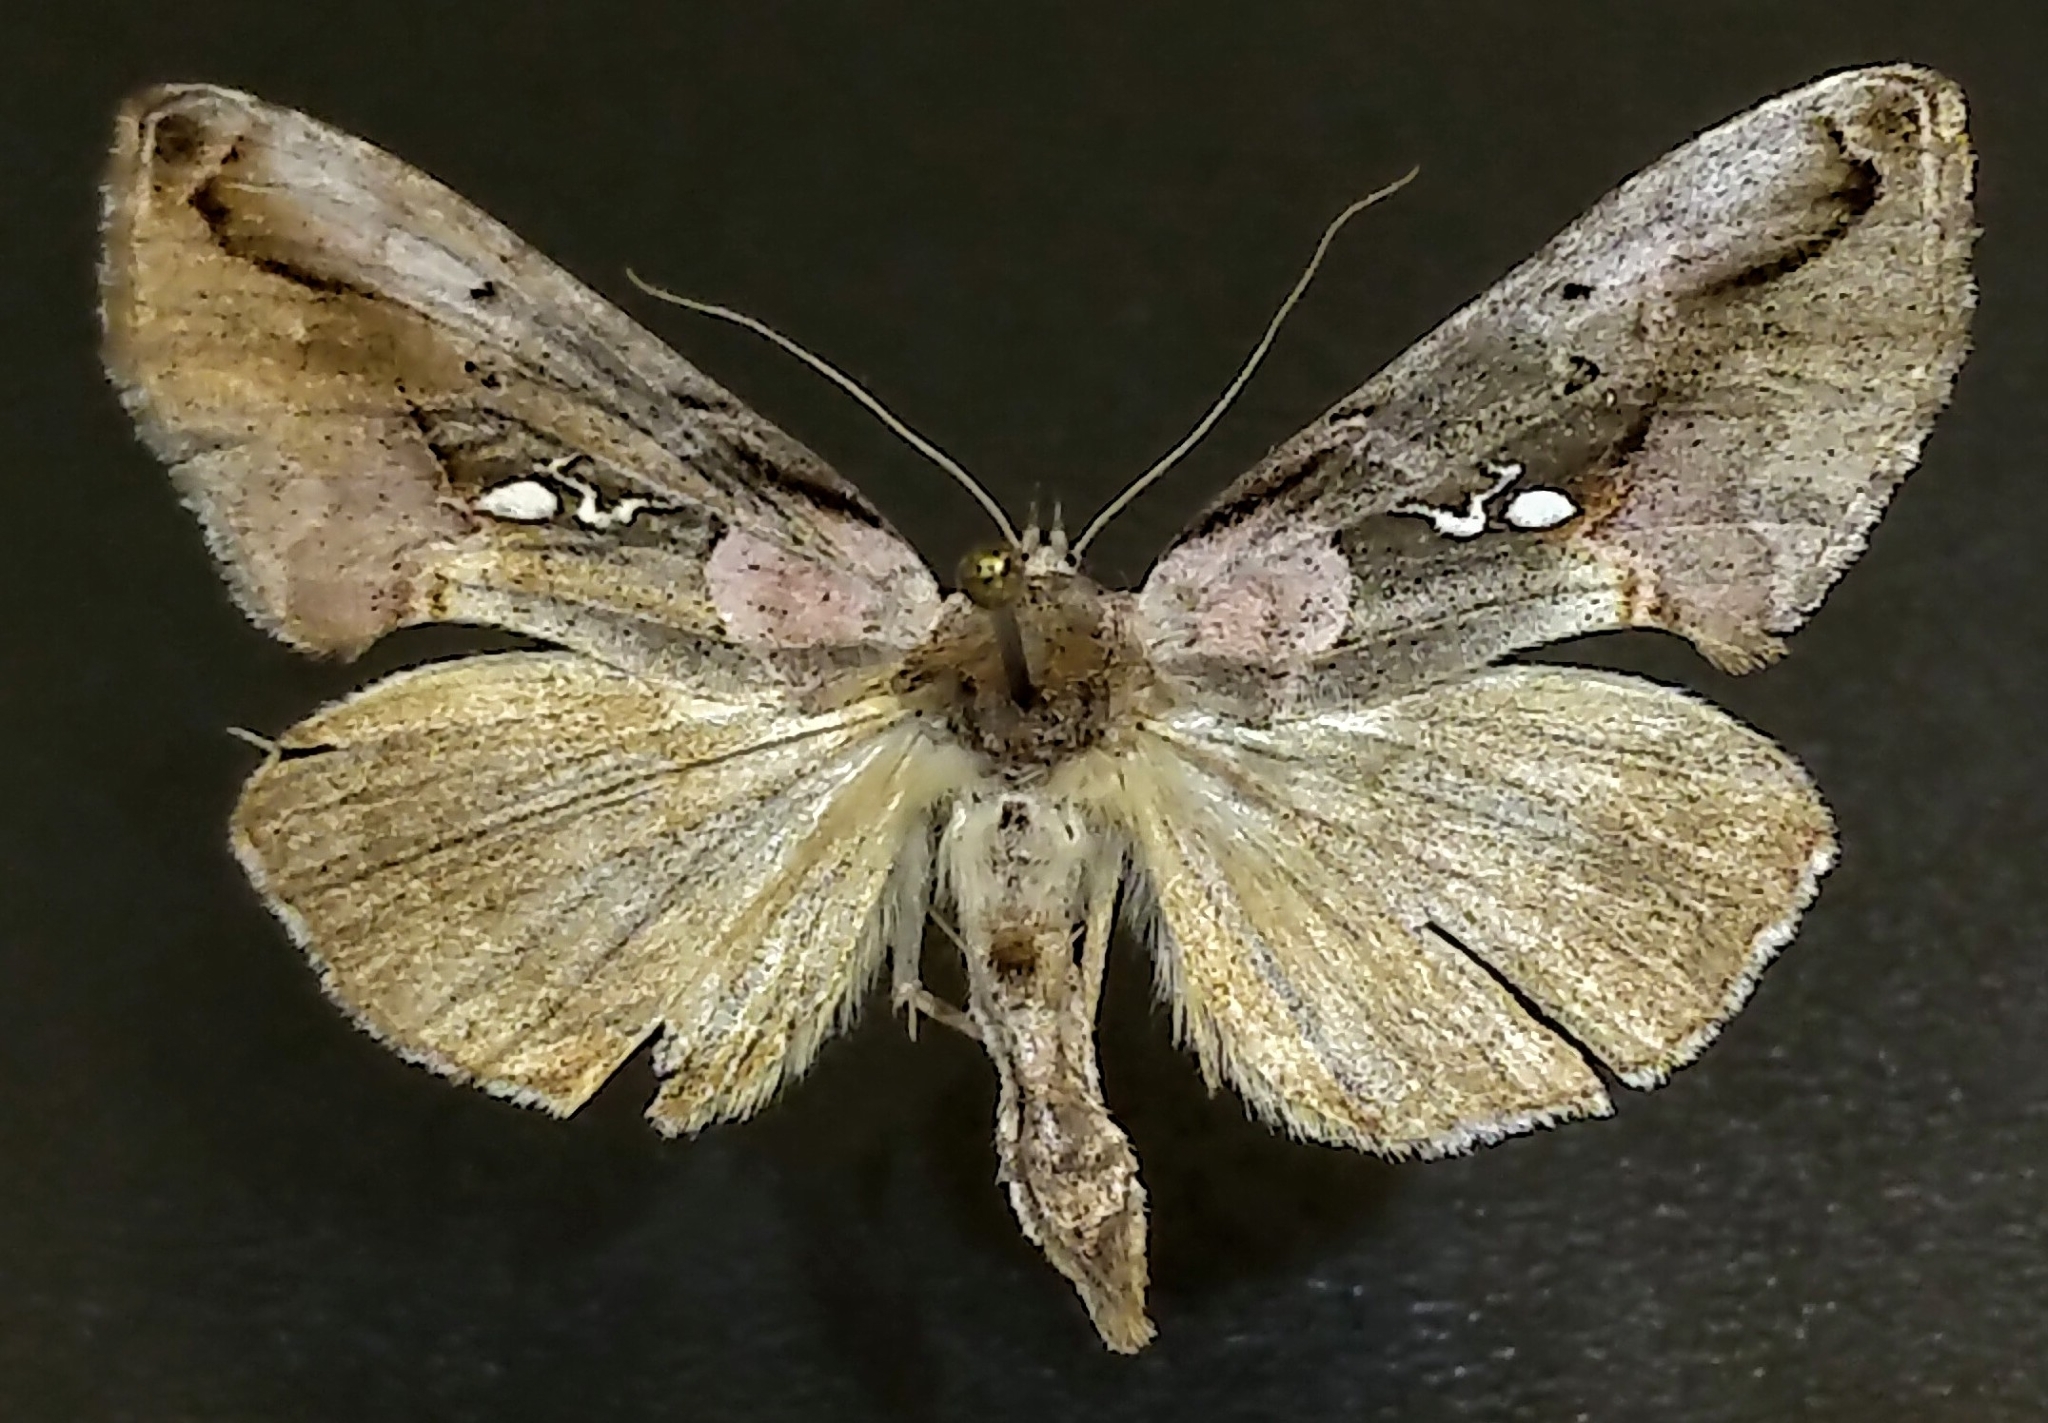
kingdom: Animalia
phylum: Arthropoda
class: Insecta
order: Lepidoptera
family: Noctuidae
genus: Eosphoropteryx
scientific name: Eosphoropteryx thyatyroides
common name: Pinkpatched looper moth
